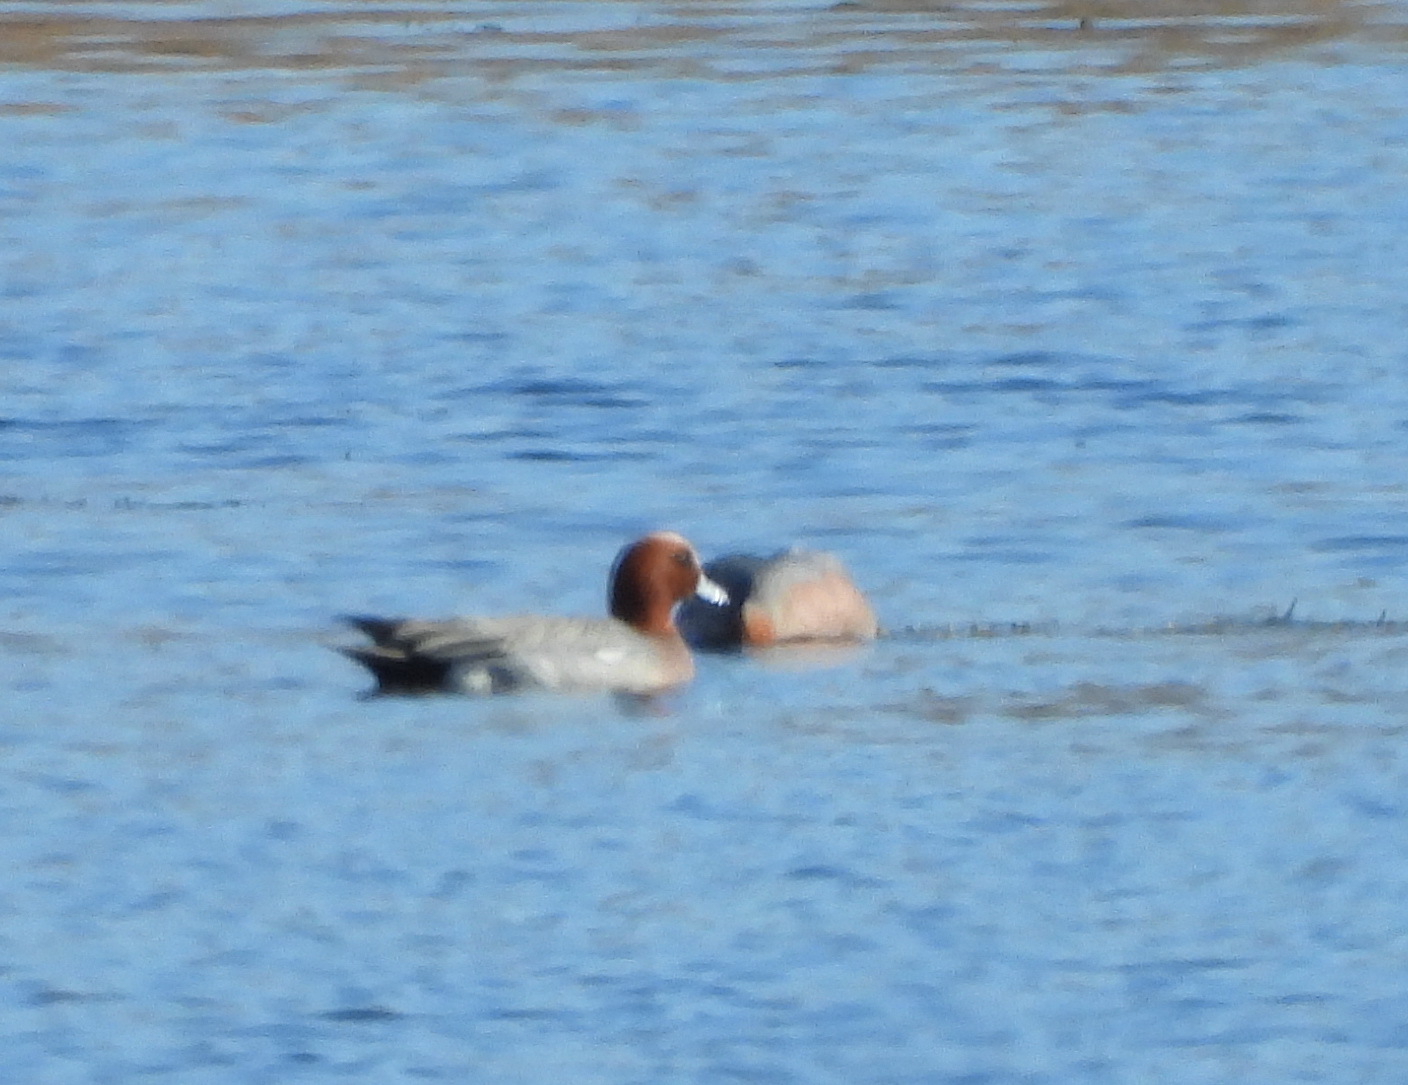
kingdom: Animalia
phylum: Chordata
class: Aves
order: Anseriformes
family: Anatidae
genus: Mareca
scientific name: Mareca penelope
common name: Eurasian wigeon
